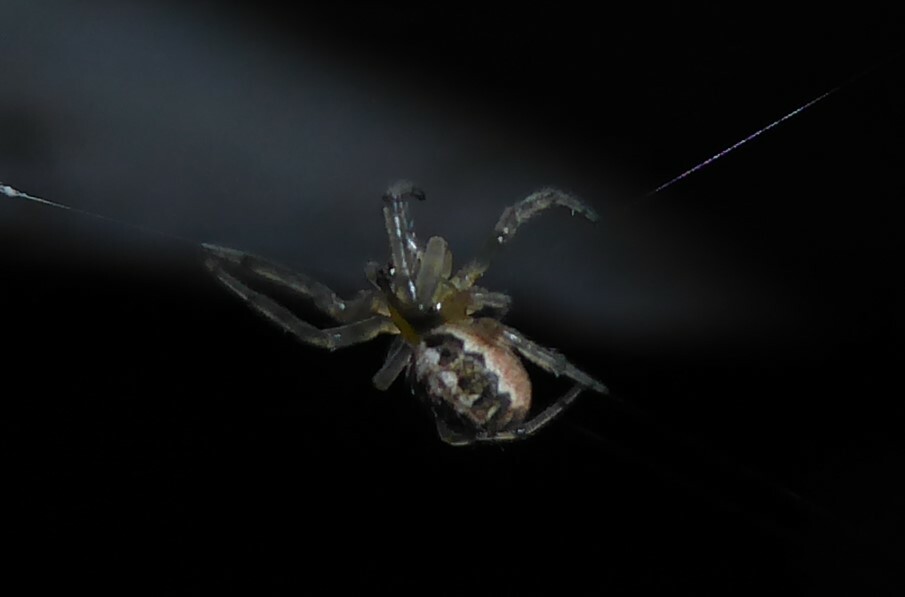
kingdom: Animalia
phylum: Arthropoda
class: Arachnida
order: Araneae
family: Araneidae
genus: Zygiella
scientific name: Zygiella x-notata
